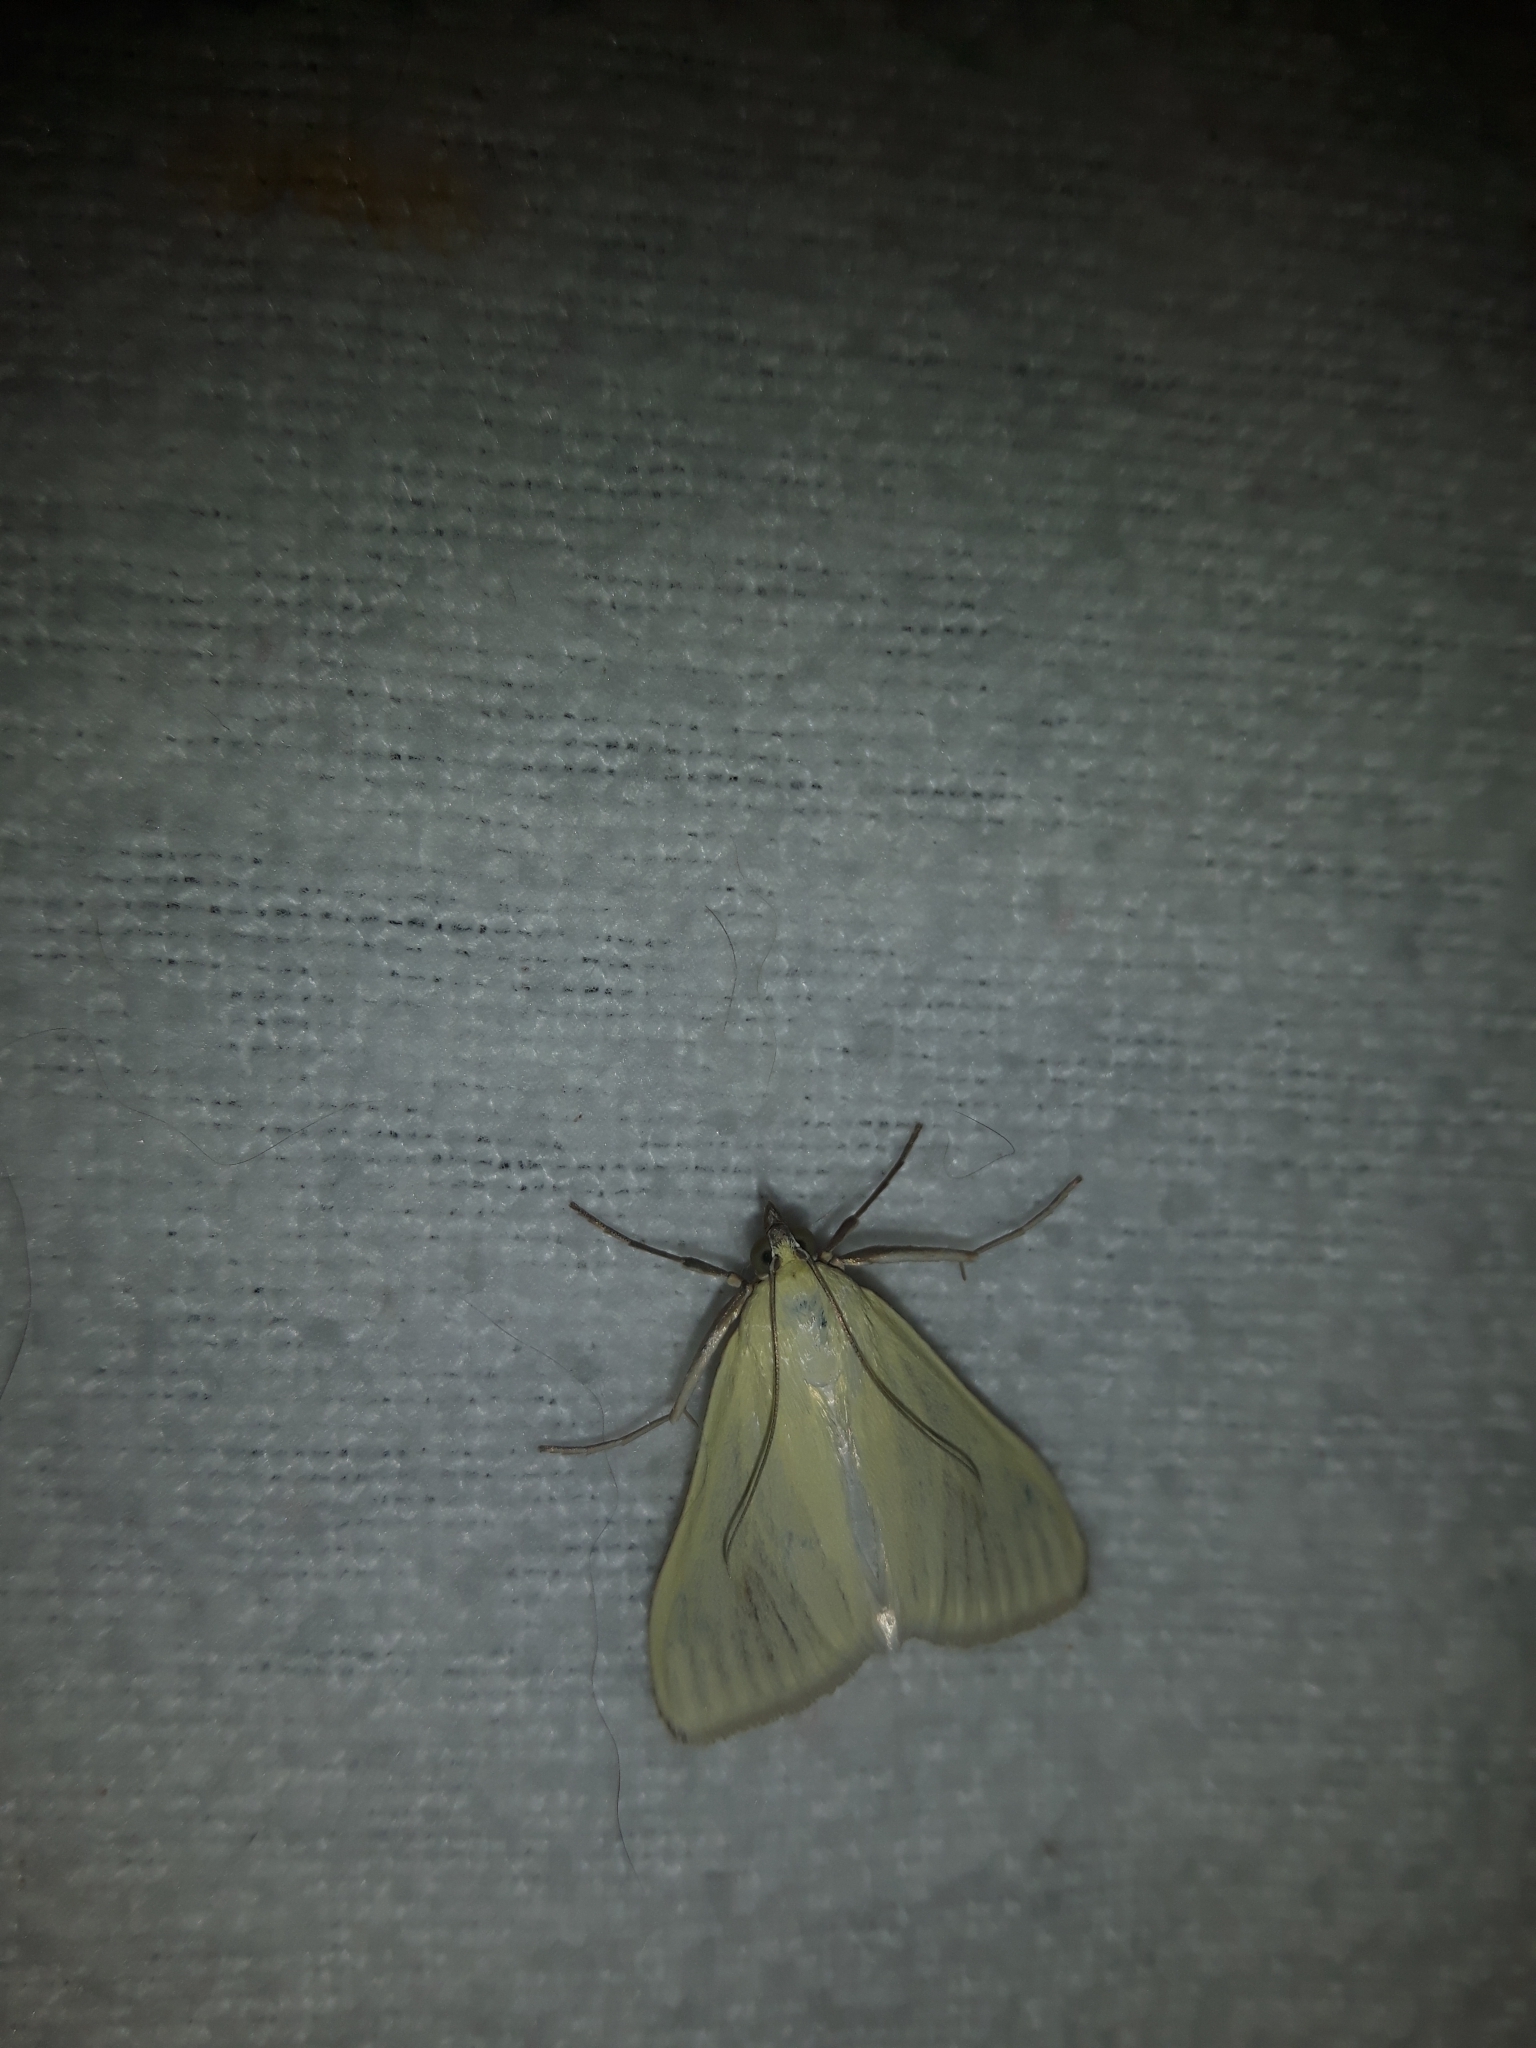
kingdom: Animalia
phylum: Arthropoda
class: Insecta
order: Lepidoptera
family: Crambidae
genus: Sitochroa
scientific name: Sitochroa palealis
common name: Greenish-yellow sitochroa moth
